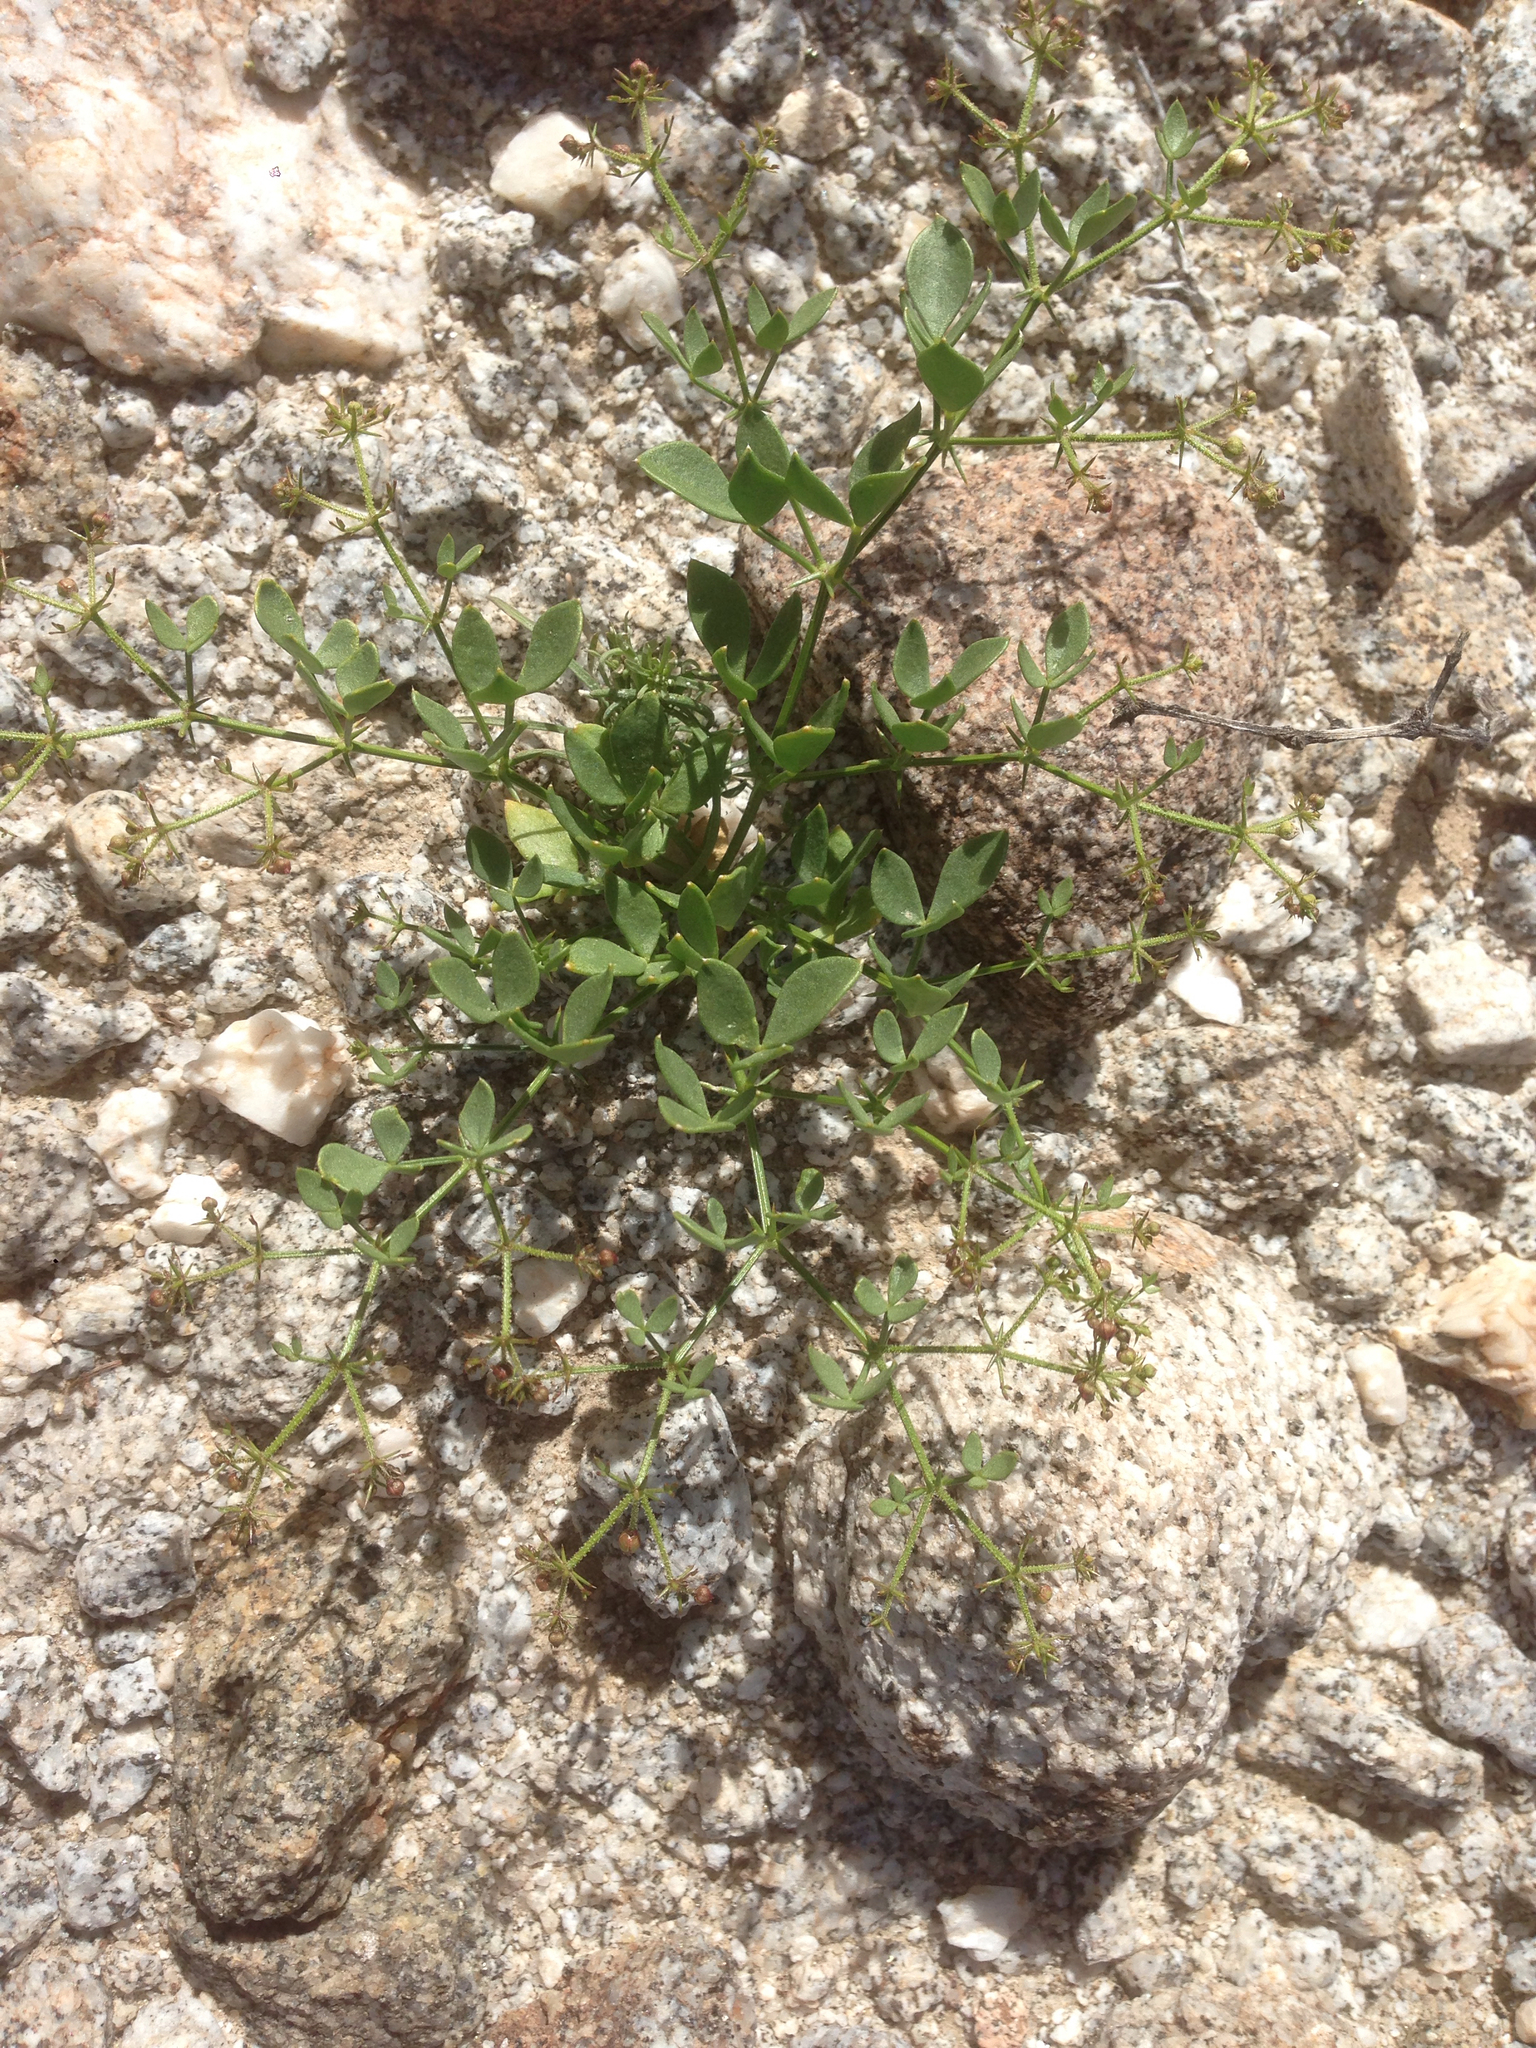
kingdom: Plantae
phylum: Tracheophyta
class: Magnoliopsida
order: Zygophyllales
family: Zygophyllaceae
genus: Fagonia
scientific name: Fagonia pachyacantha
